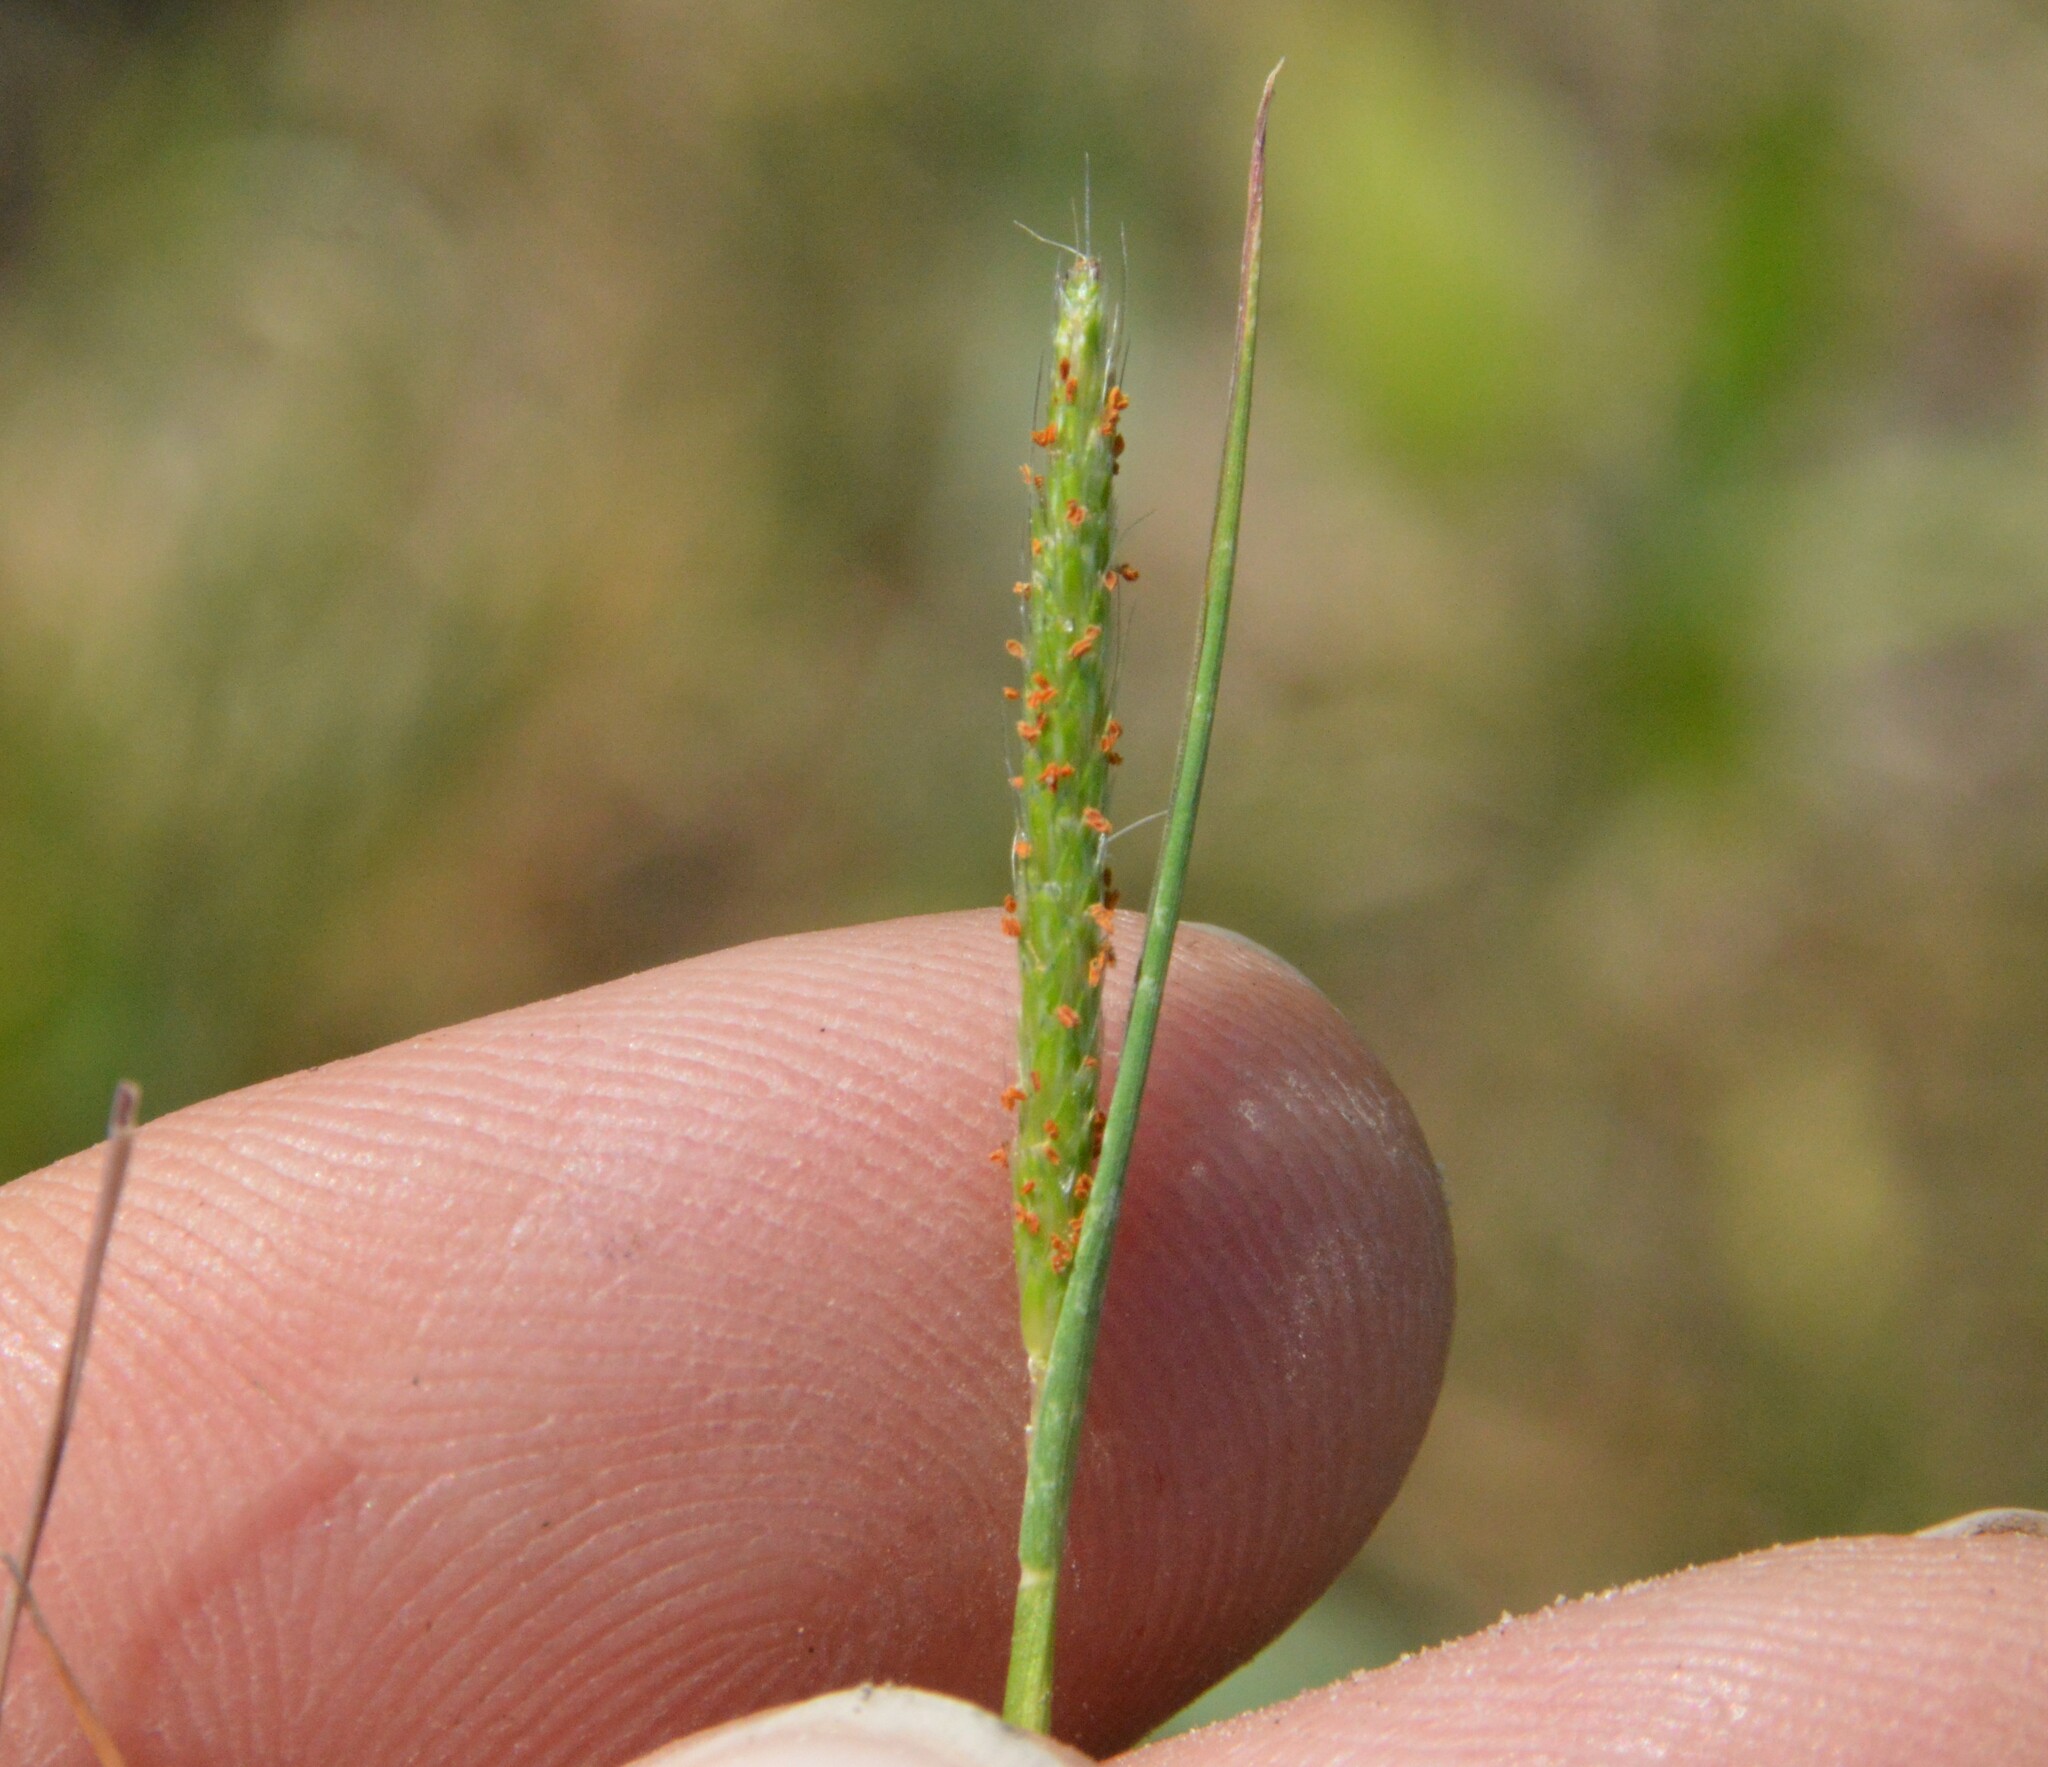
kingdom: Plantae
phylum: Tracheophyta
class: Liliopsida
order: Poales
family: Poaceae
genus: Alopecurus
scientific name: Alopecurus carolinianus
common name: Tufted foxtail
